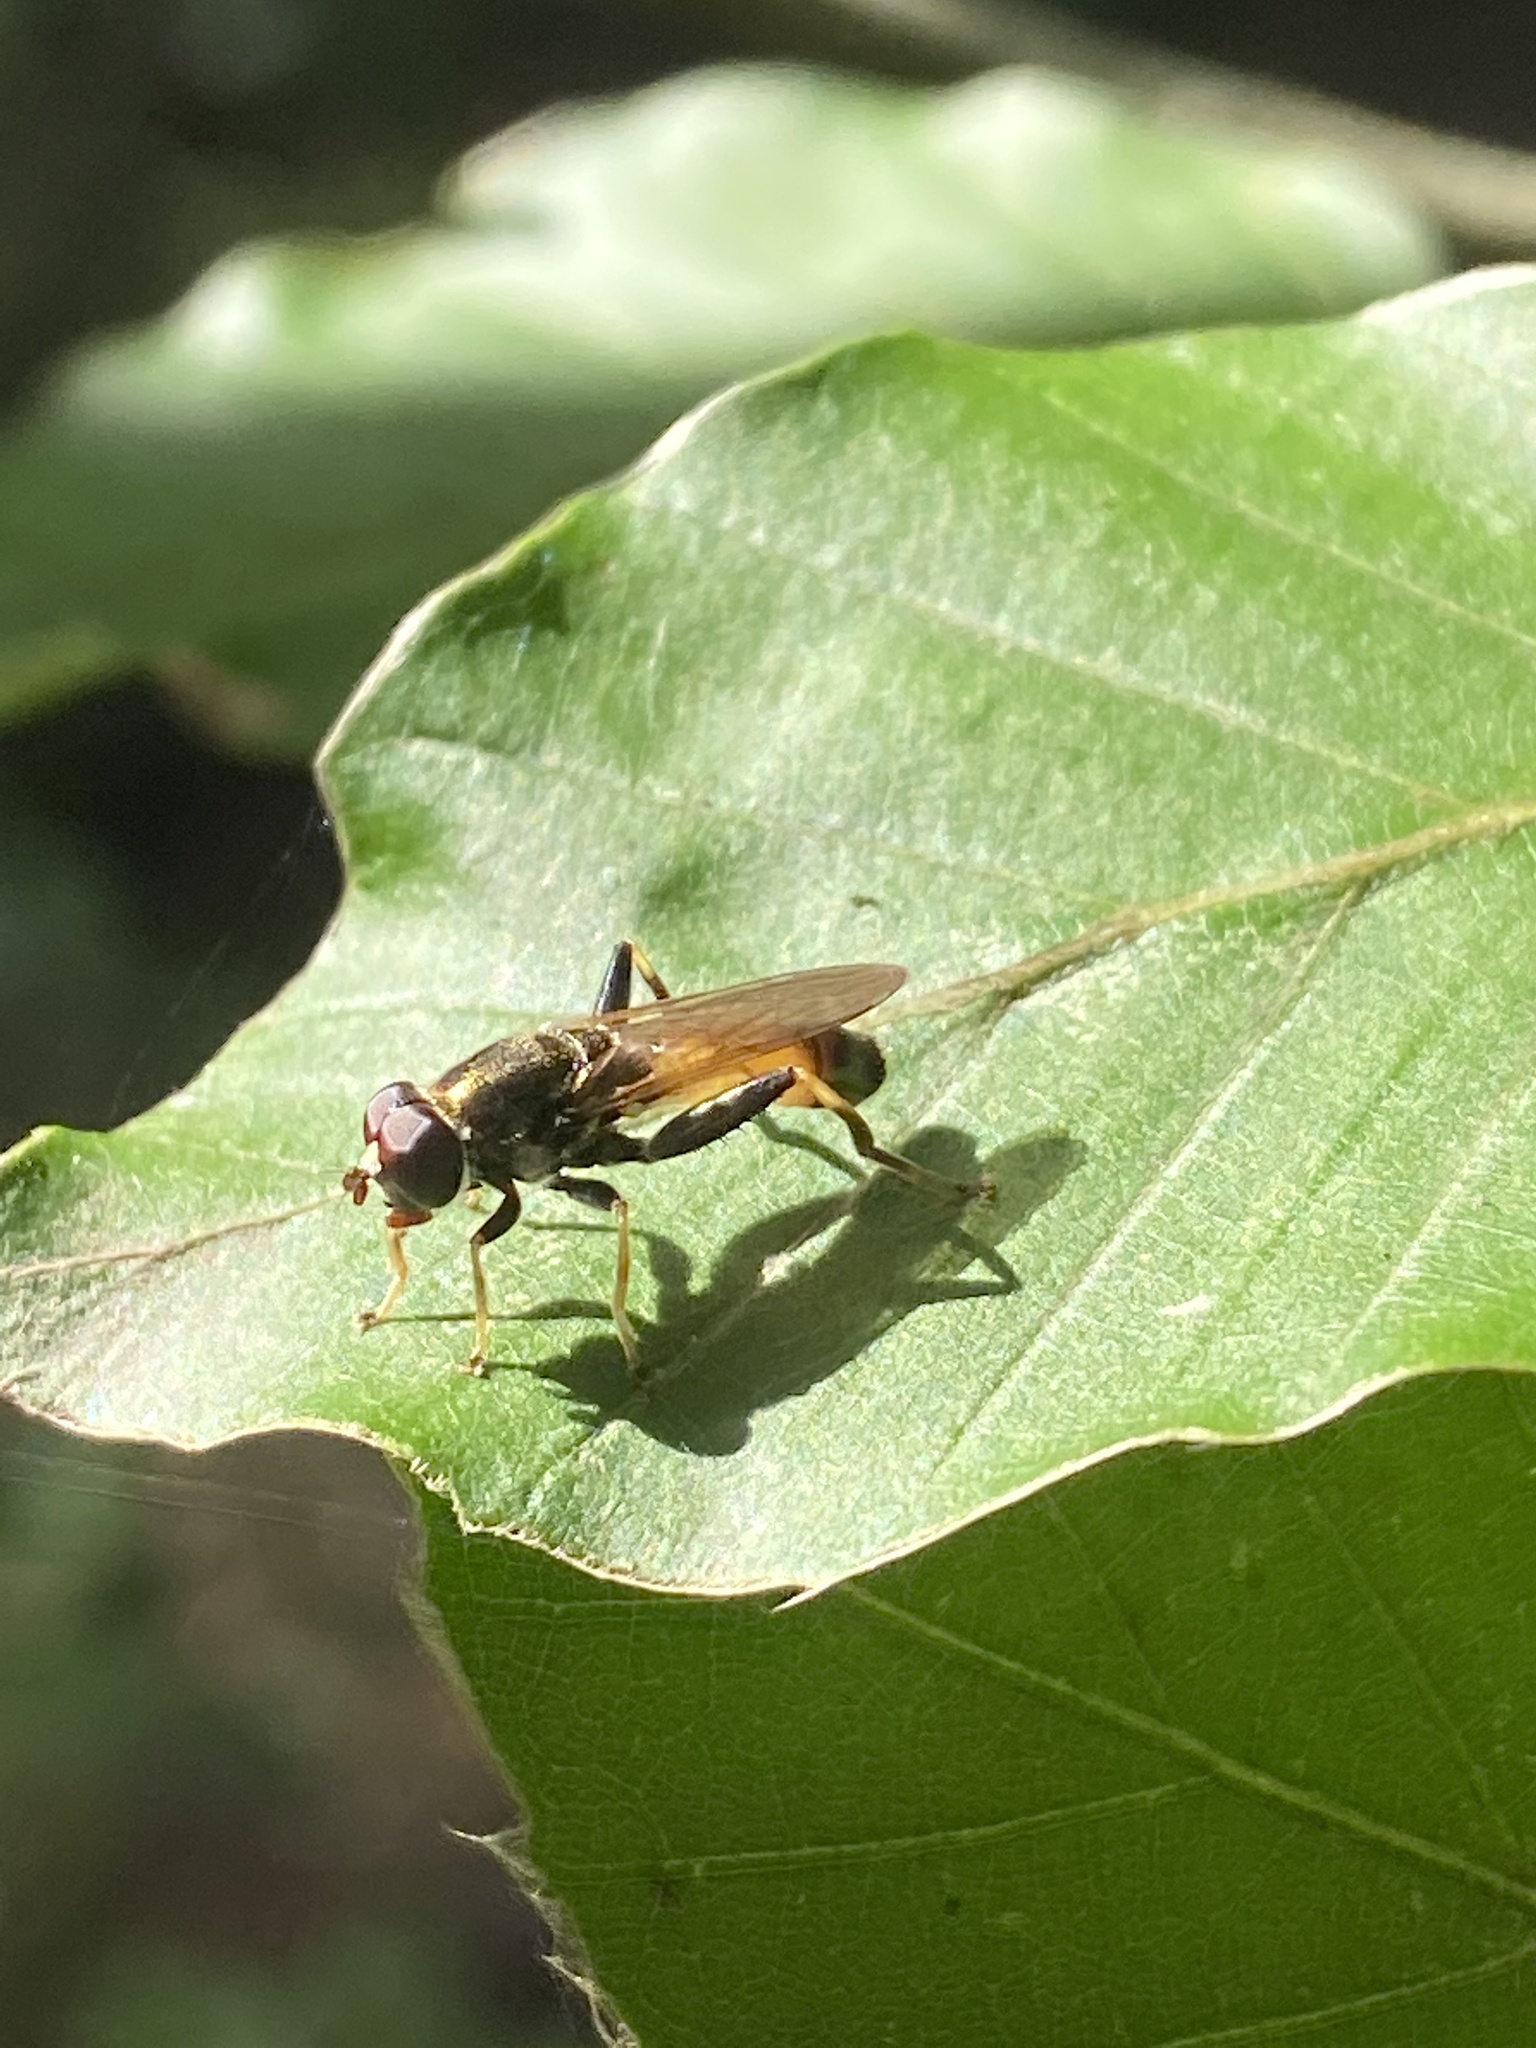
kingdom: Animalia
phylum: Arthropoda
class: Insecta
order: Diptera
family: Syrphidae
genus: Xylota
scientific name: Xylota segnis
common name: Brown-toed forest fly
